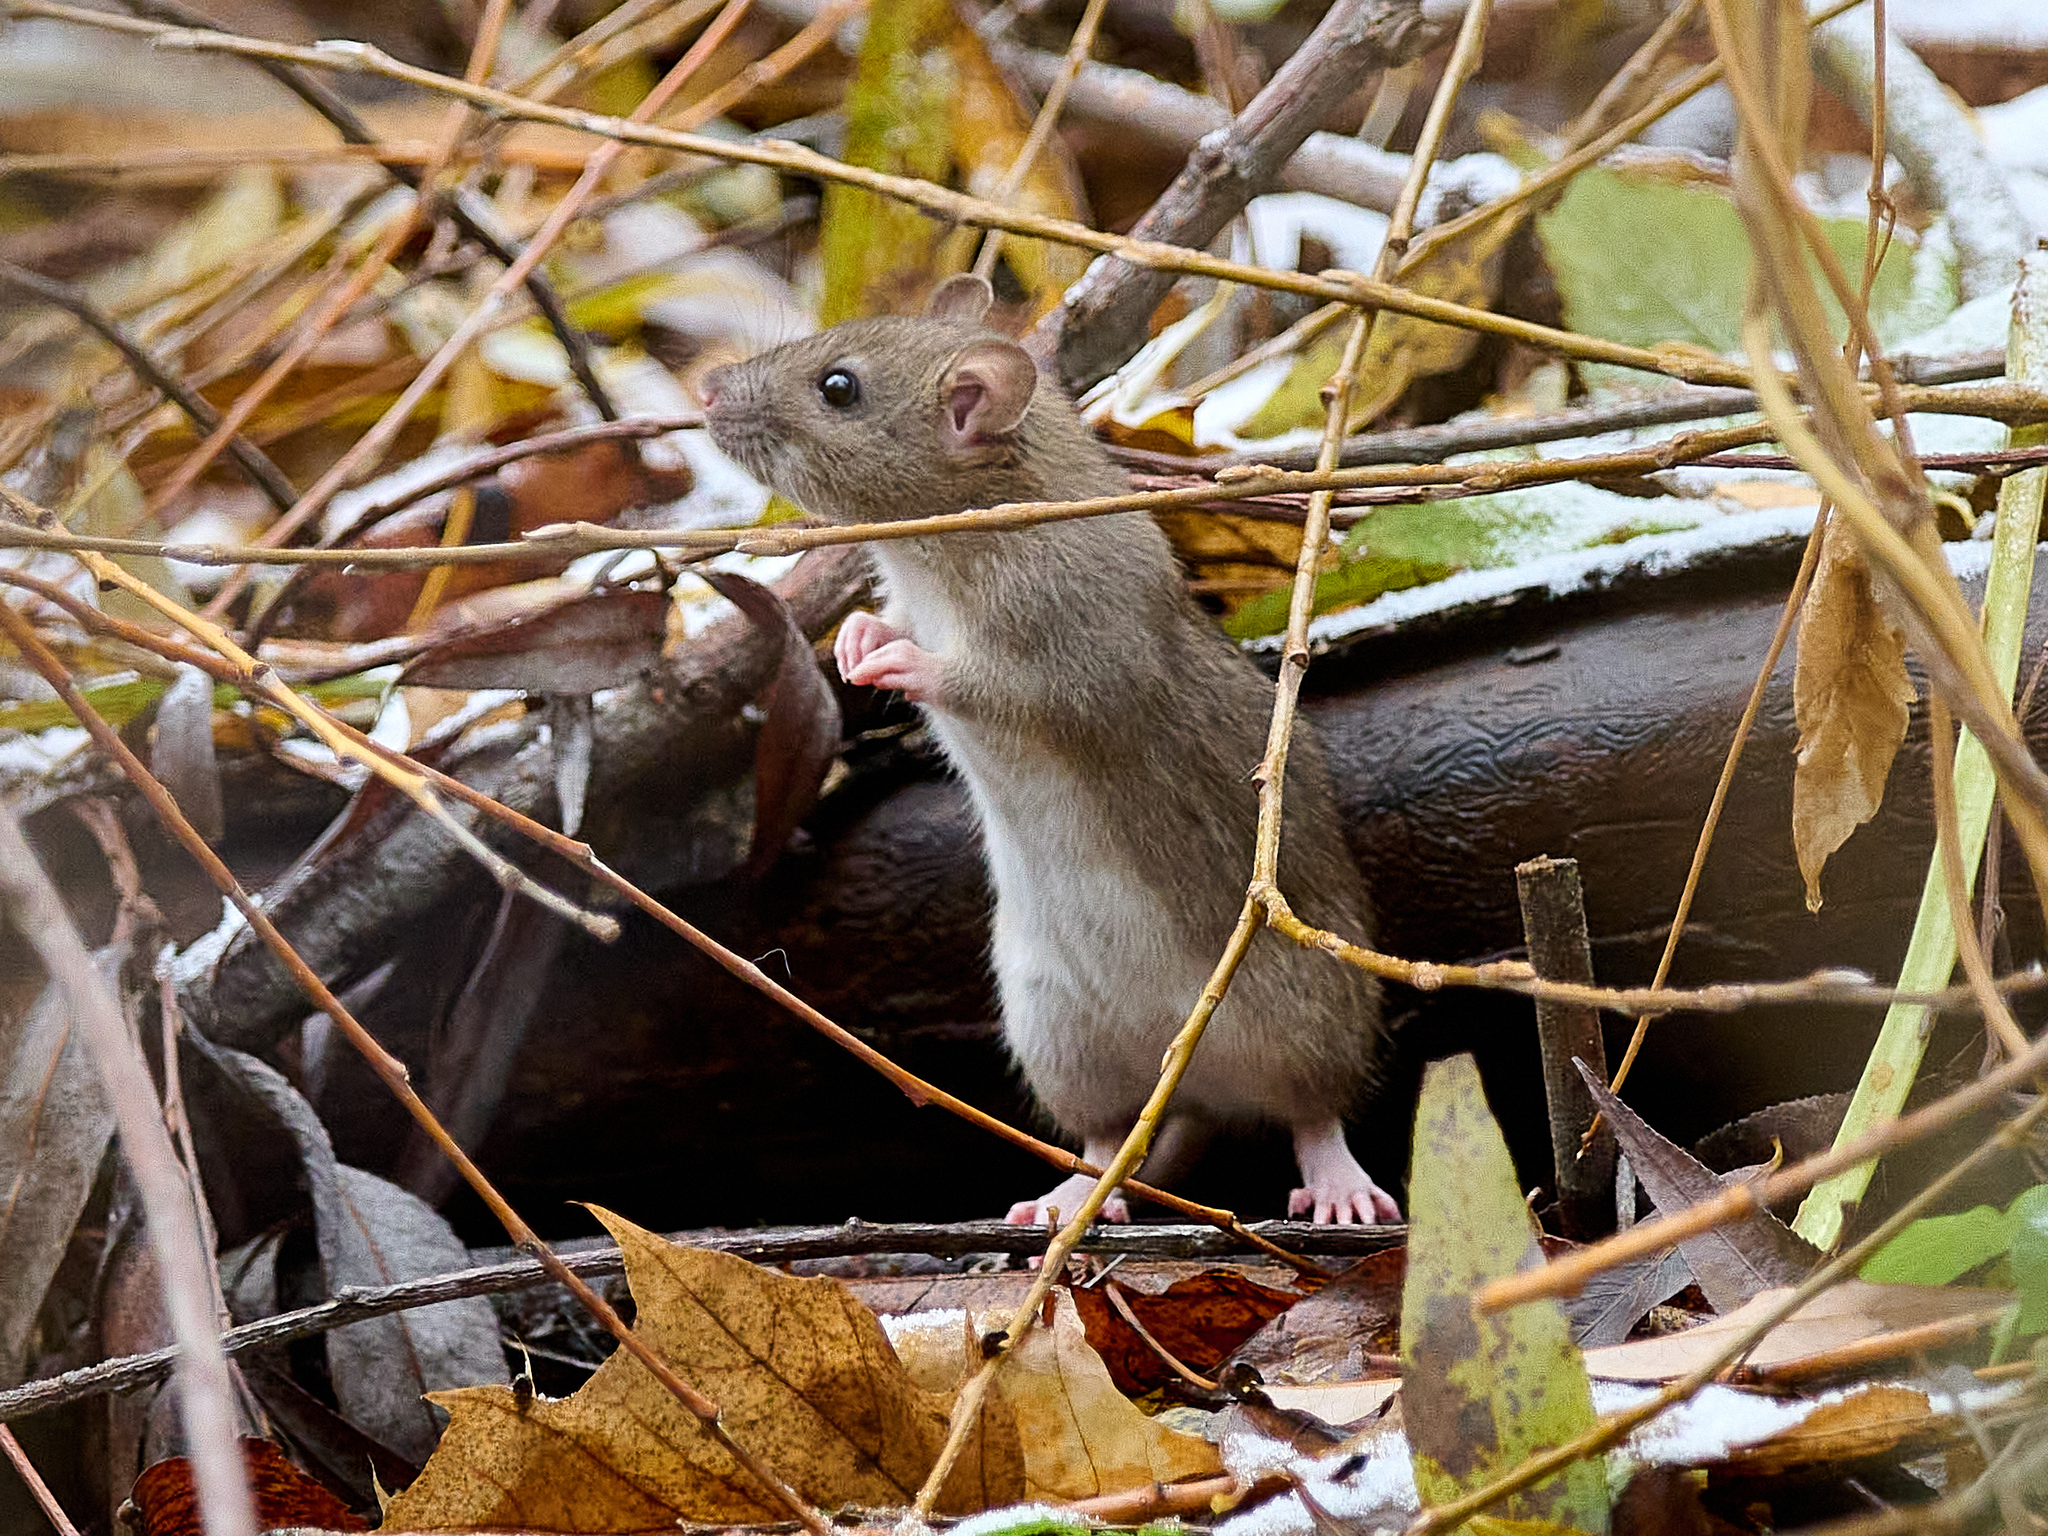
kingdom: Animalia
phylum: Chordata
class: Mammalia
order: Rodentia
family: Muridae
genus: Rattus
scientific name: Rattus norvegicus
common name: Brown rat
